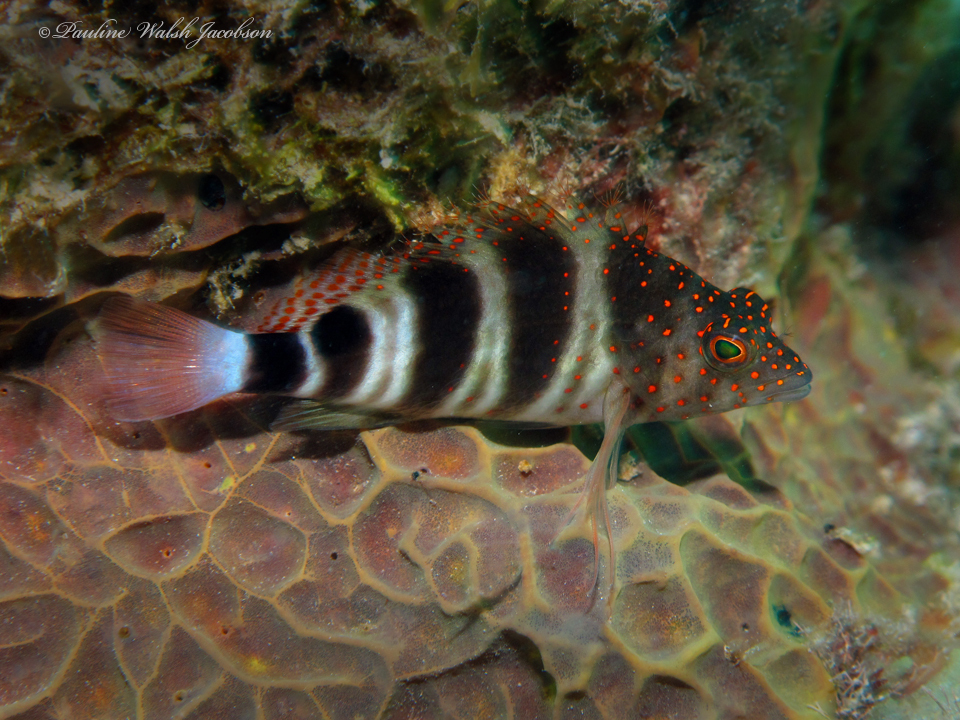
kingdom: Animalia
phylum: Chordata
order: Perciformes
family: Cirrhitidae
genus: Amblycirrhitus
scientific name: Amblycirrhitus pinos
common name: Redspotted hawkfish
